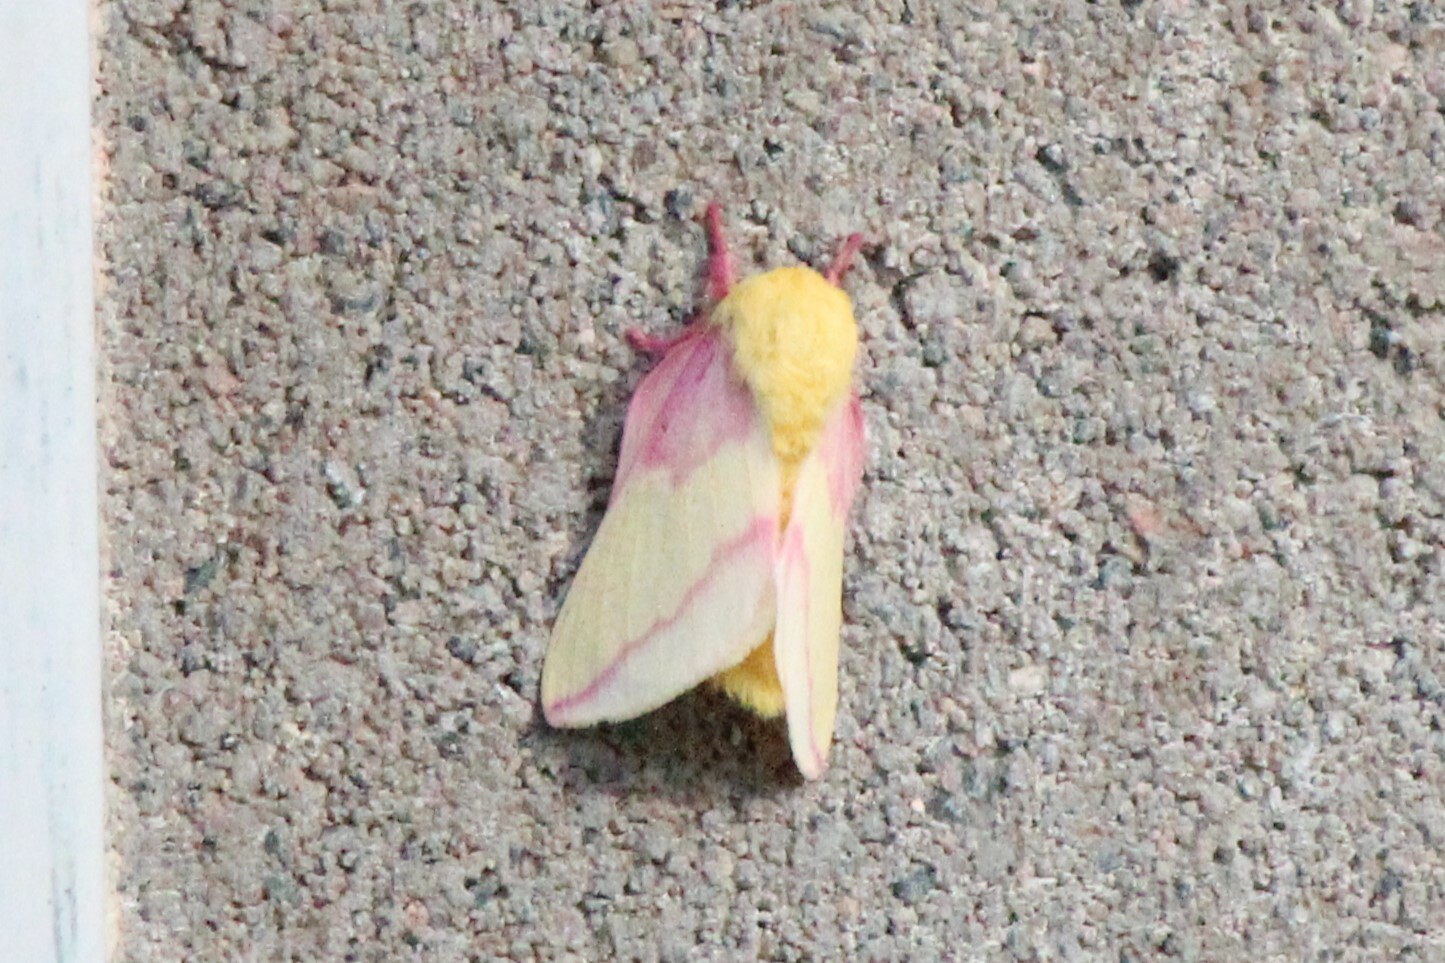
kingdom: Animalia
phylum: Arthropoda
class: Insecta
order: Lepidoptera
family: Saturniidae
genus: Dryocampa
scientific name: Dryocampa rubicunda
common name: Rosy maple moth
